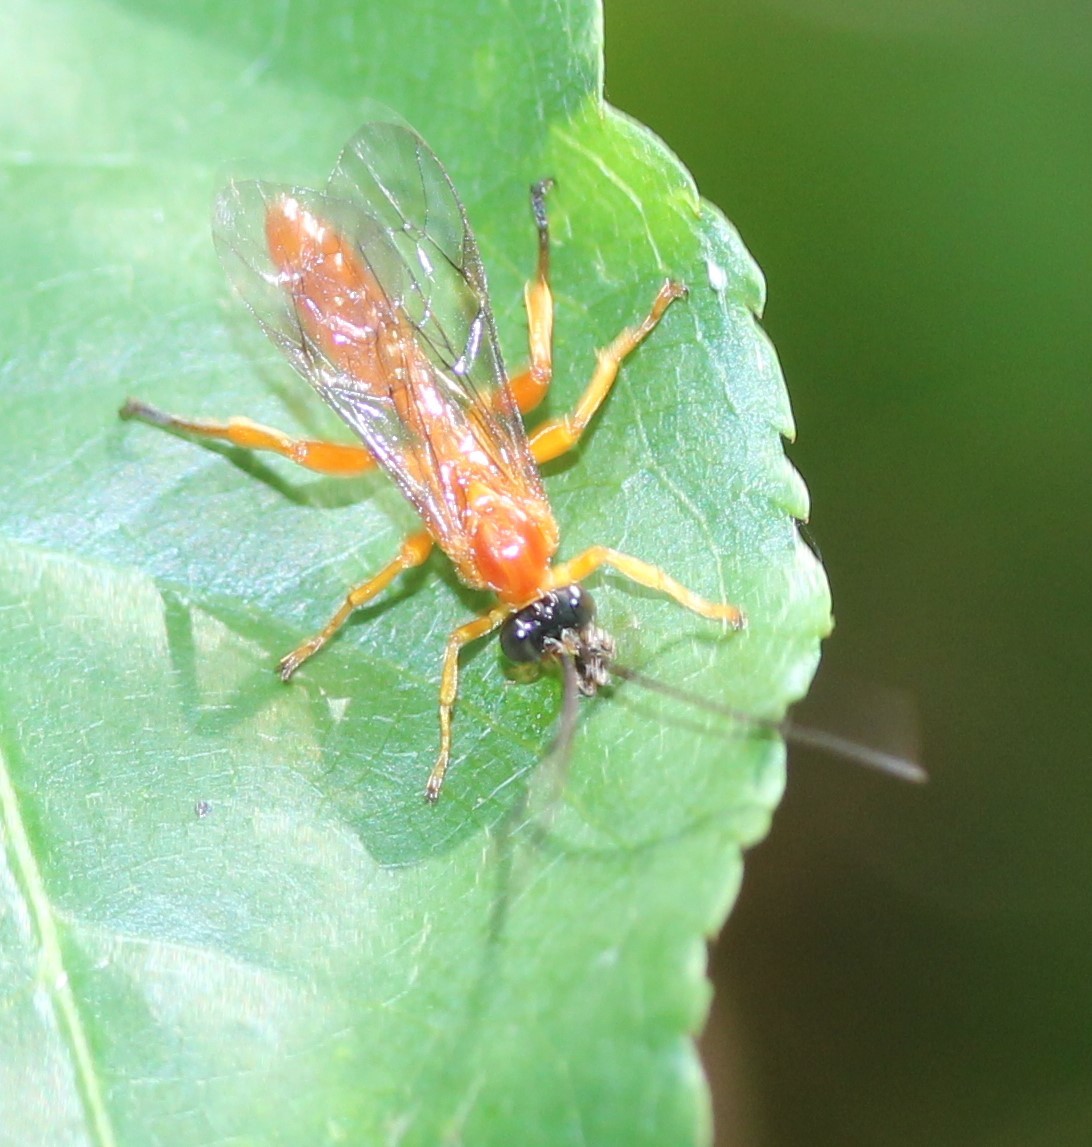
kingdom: Animalia
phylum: Arthropoda
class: Insecta
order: Hymenoptera
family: Ichneumonidae
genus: Theronia
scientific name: Theronia hilaris
